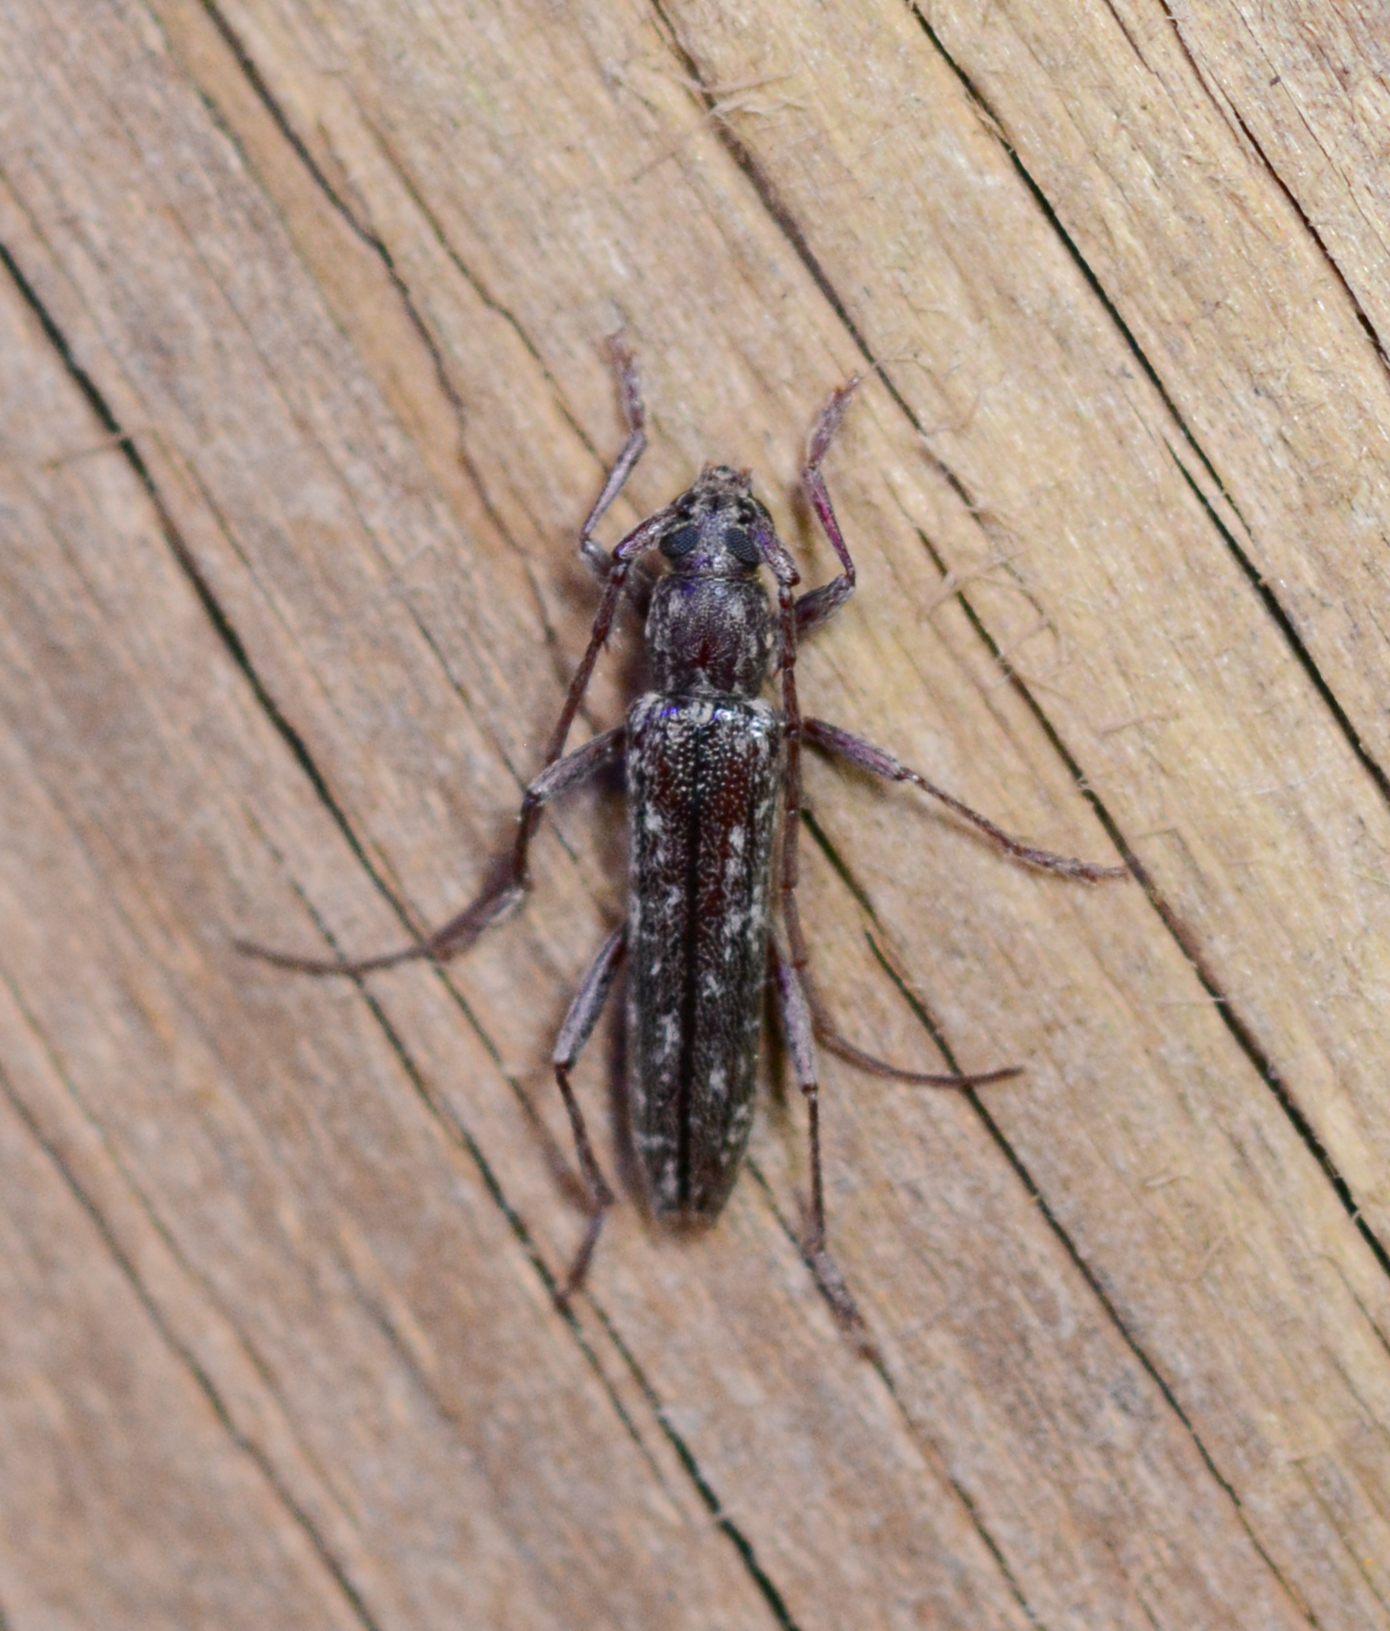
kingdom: Animalia
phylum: Arthropoda
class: Insecta
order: Coleoptera
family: Cerambycidae
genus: Anelaphus
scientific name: Anelaphus villosus
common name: Twig pruner
